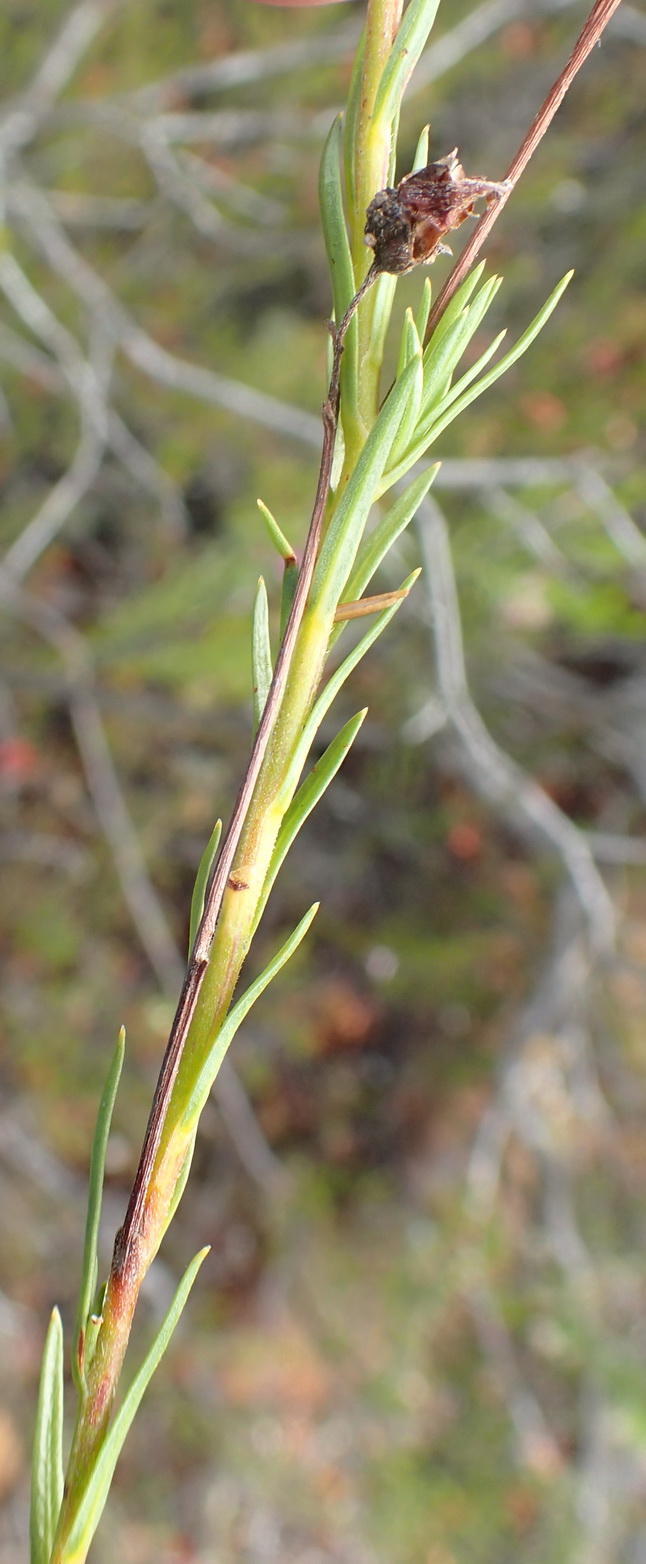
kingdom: Plantae
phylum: Tracheophyta
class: Magnoliopsida
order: Asterales
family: Campanulaceae
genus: Lobelia
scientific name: Lobelia pinifolia
